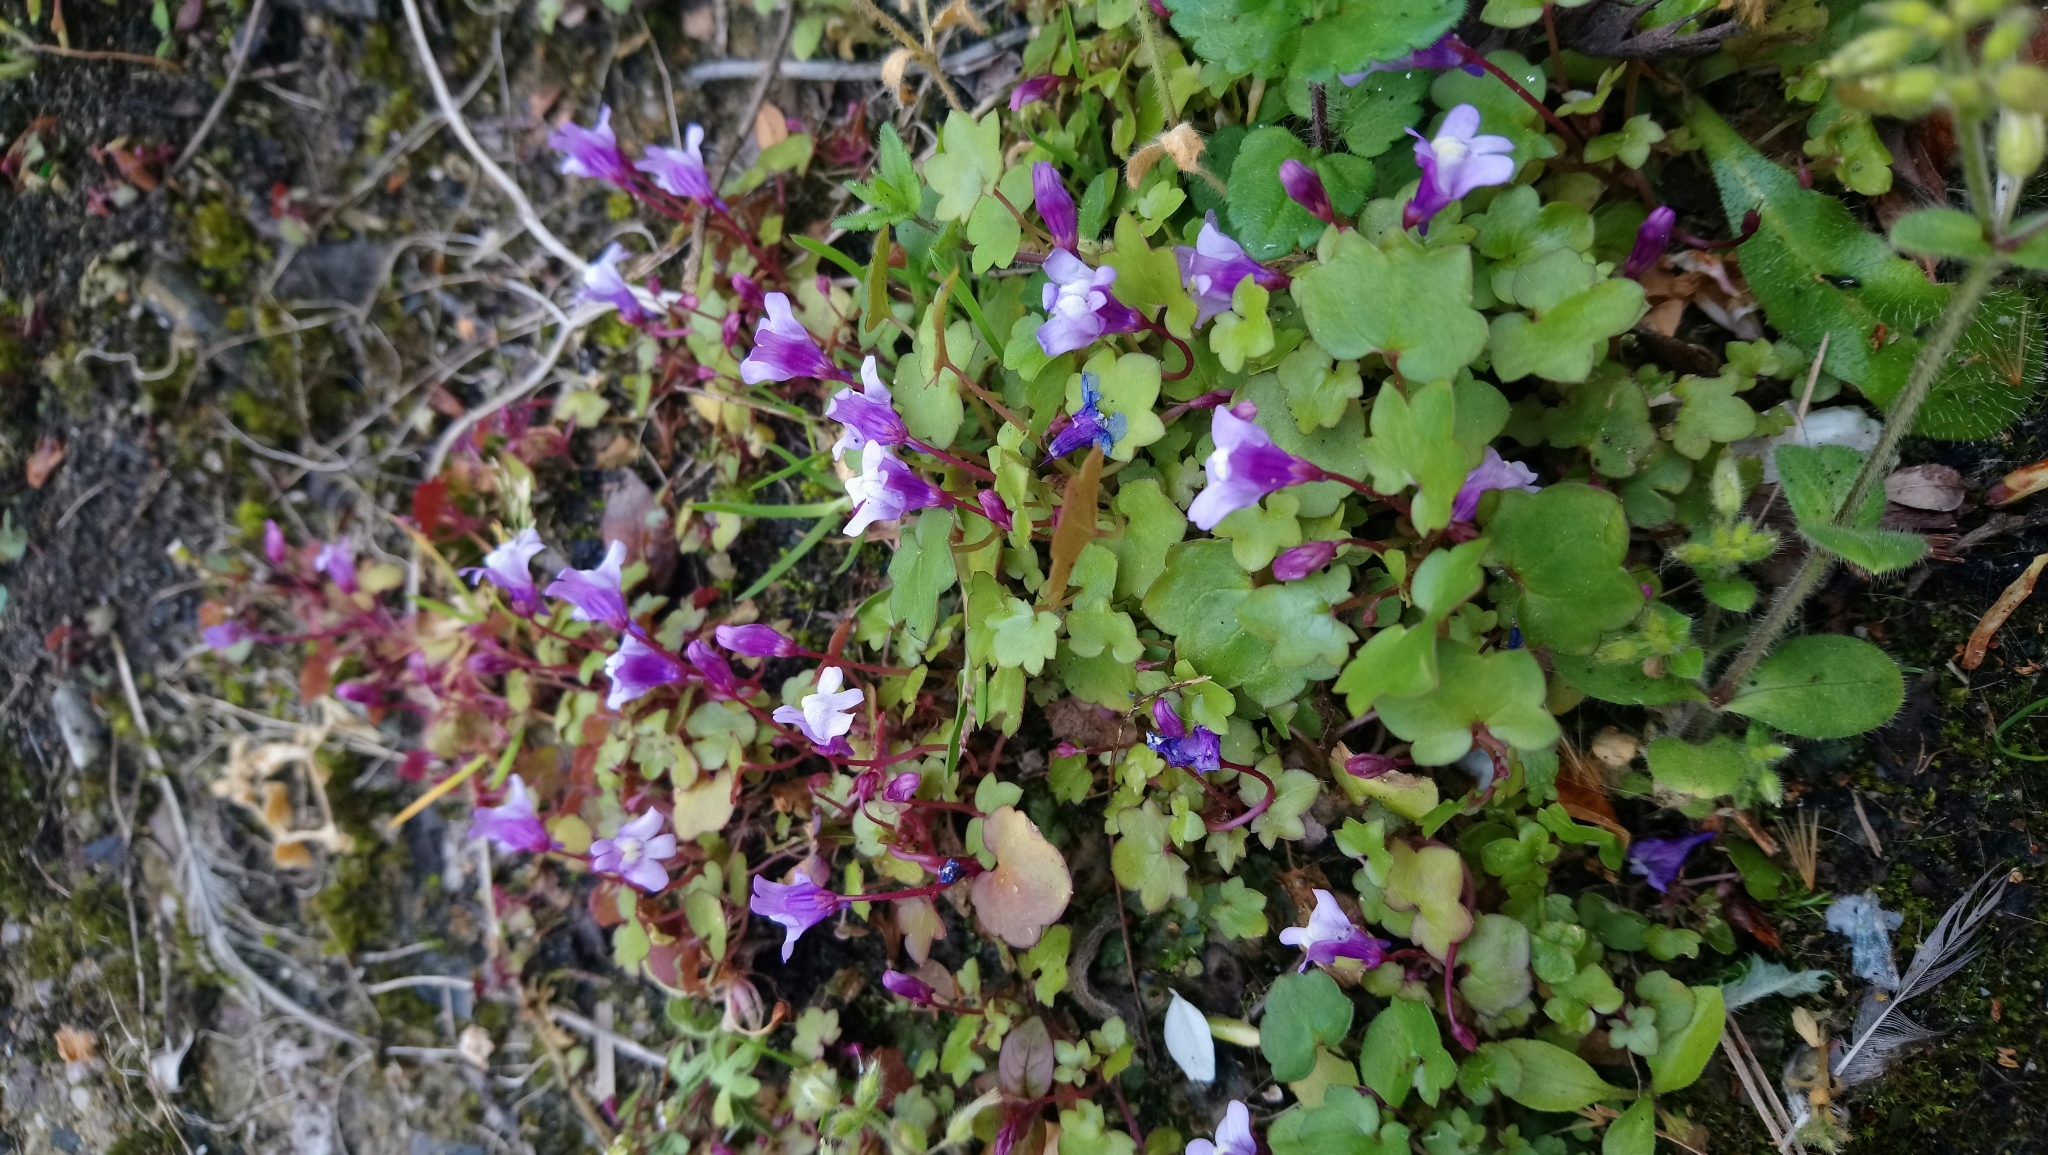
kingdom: Plantae
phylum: Tracheophyta
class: Magnoliopsida
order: Lamiales
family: Plantaginaceae
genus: Cymbalaria
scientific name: Cymbalaria muralis
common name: Ivy-leaved toadflax
